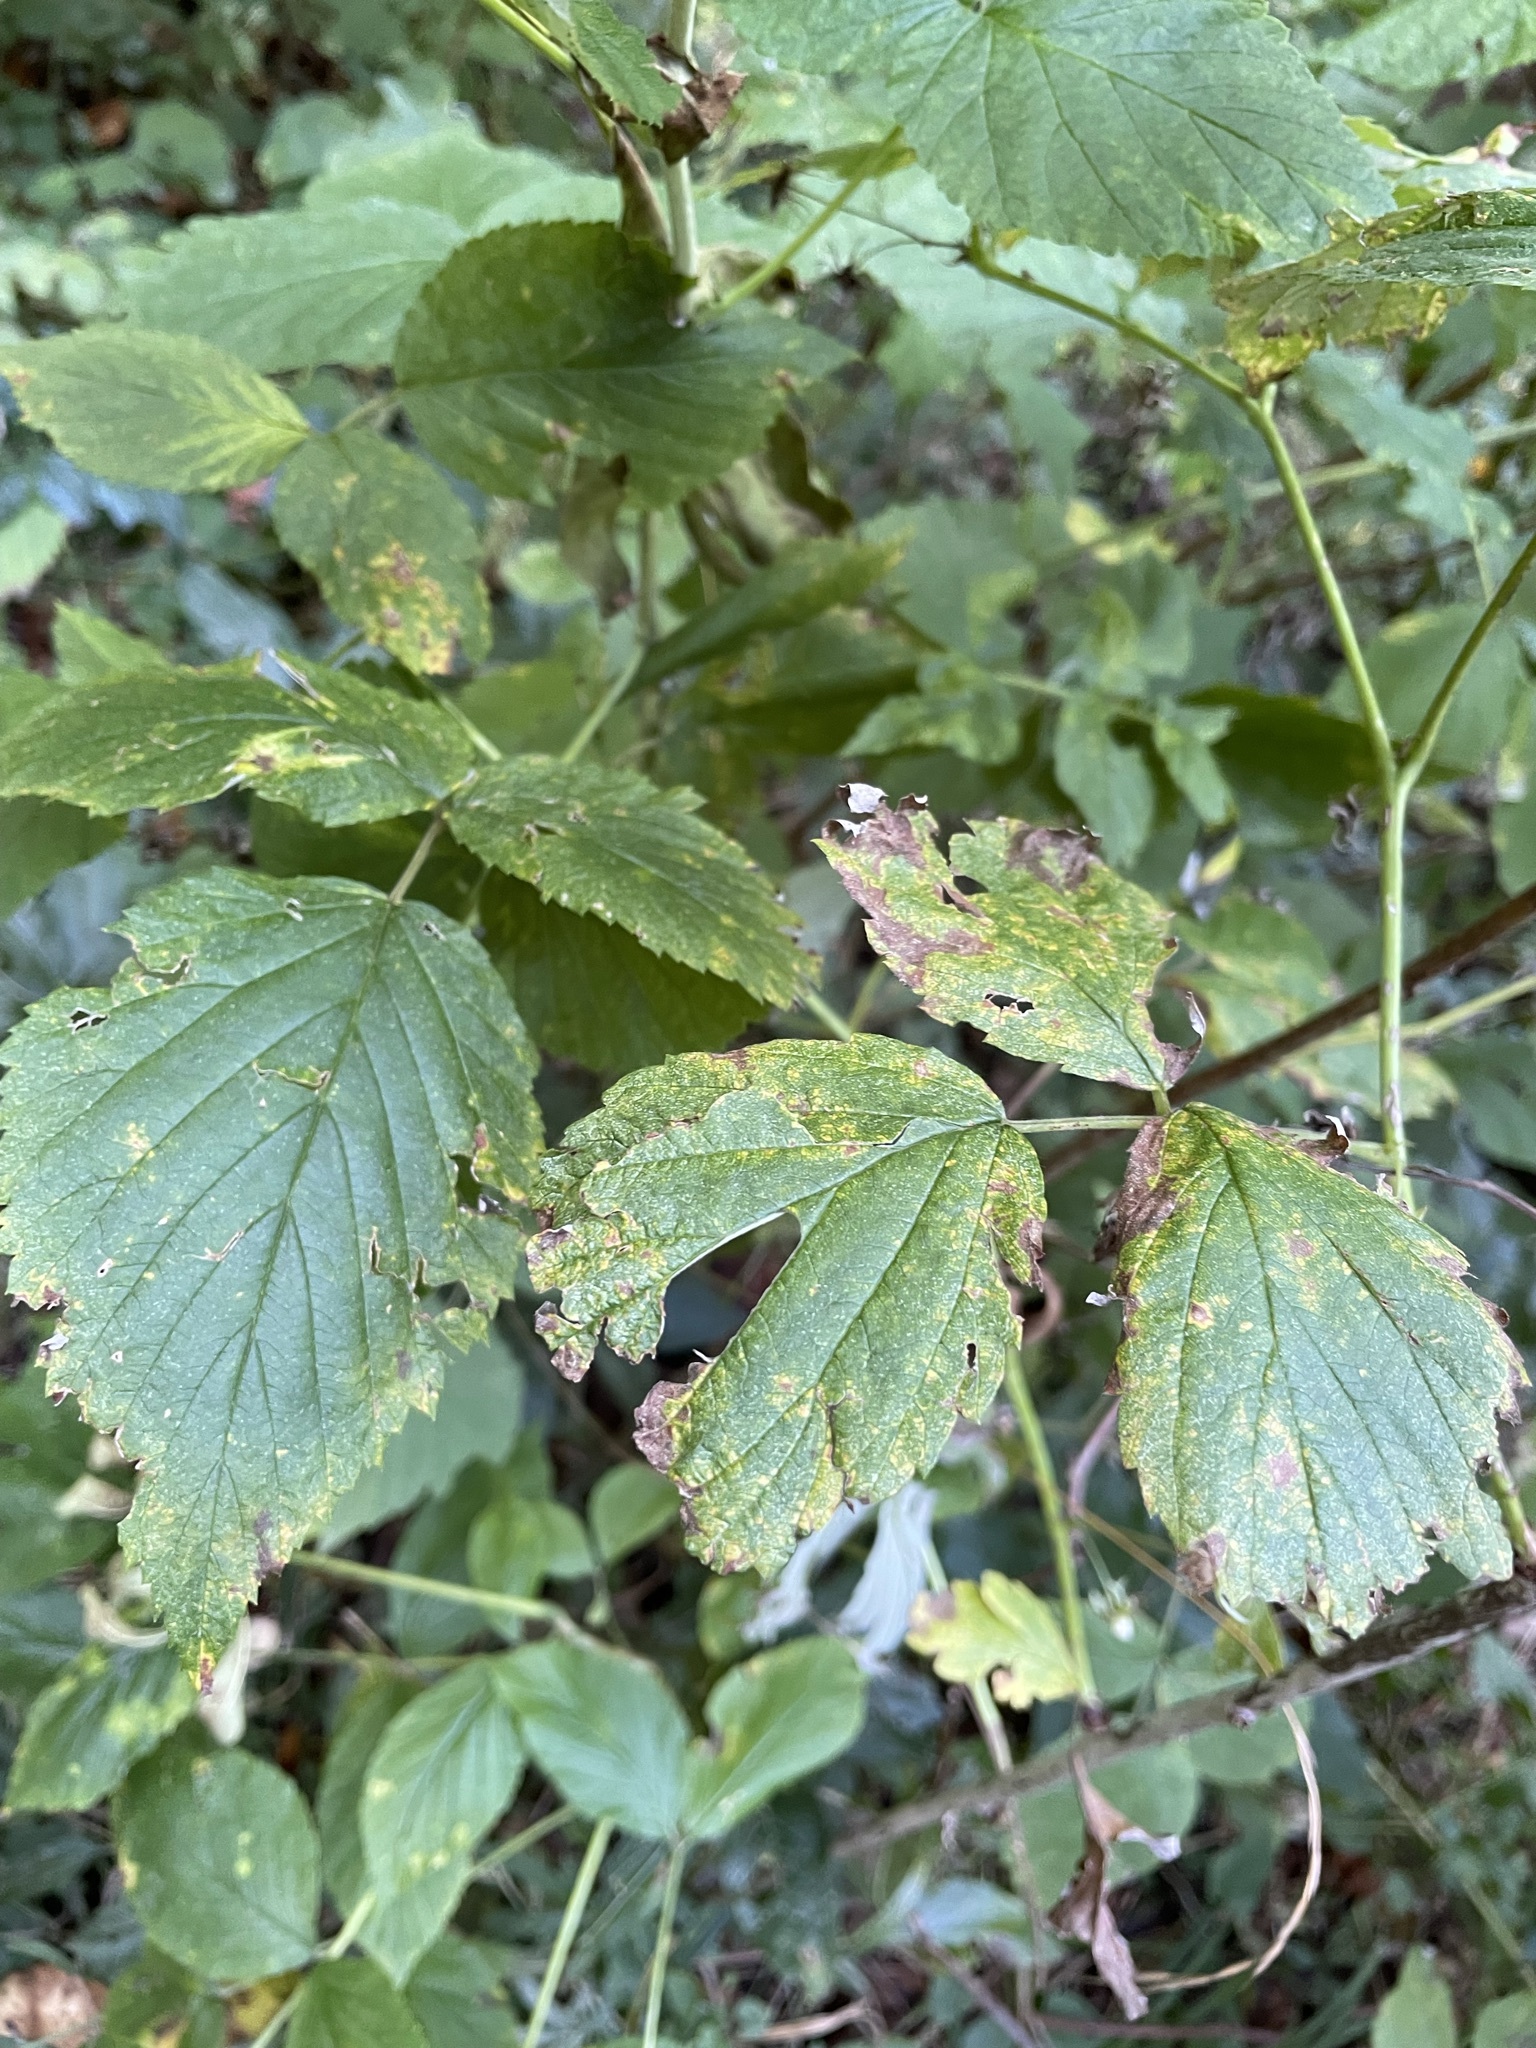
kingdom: Plantae
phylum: Tracheophyta
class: Magnoliopsida
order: Rosales
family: Rosaceae
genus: Rubus
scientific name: Rubus idaeus
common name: Raspberry
